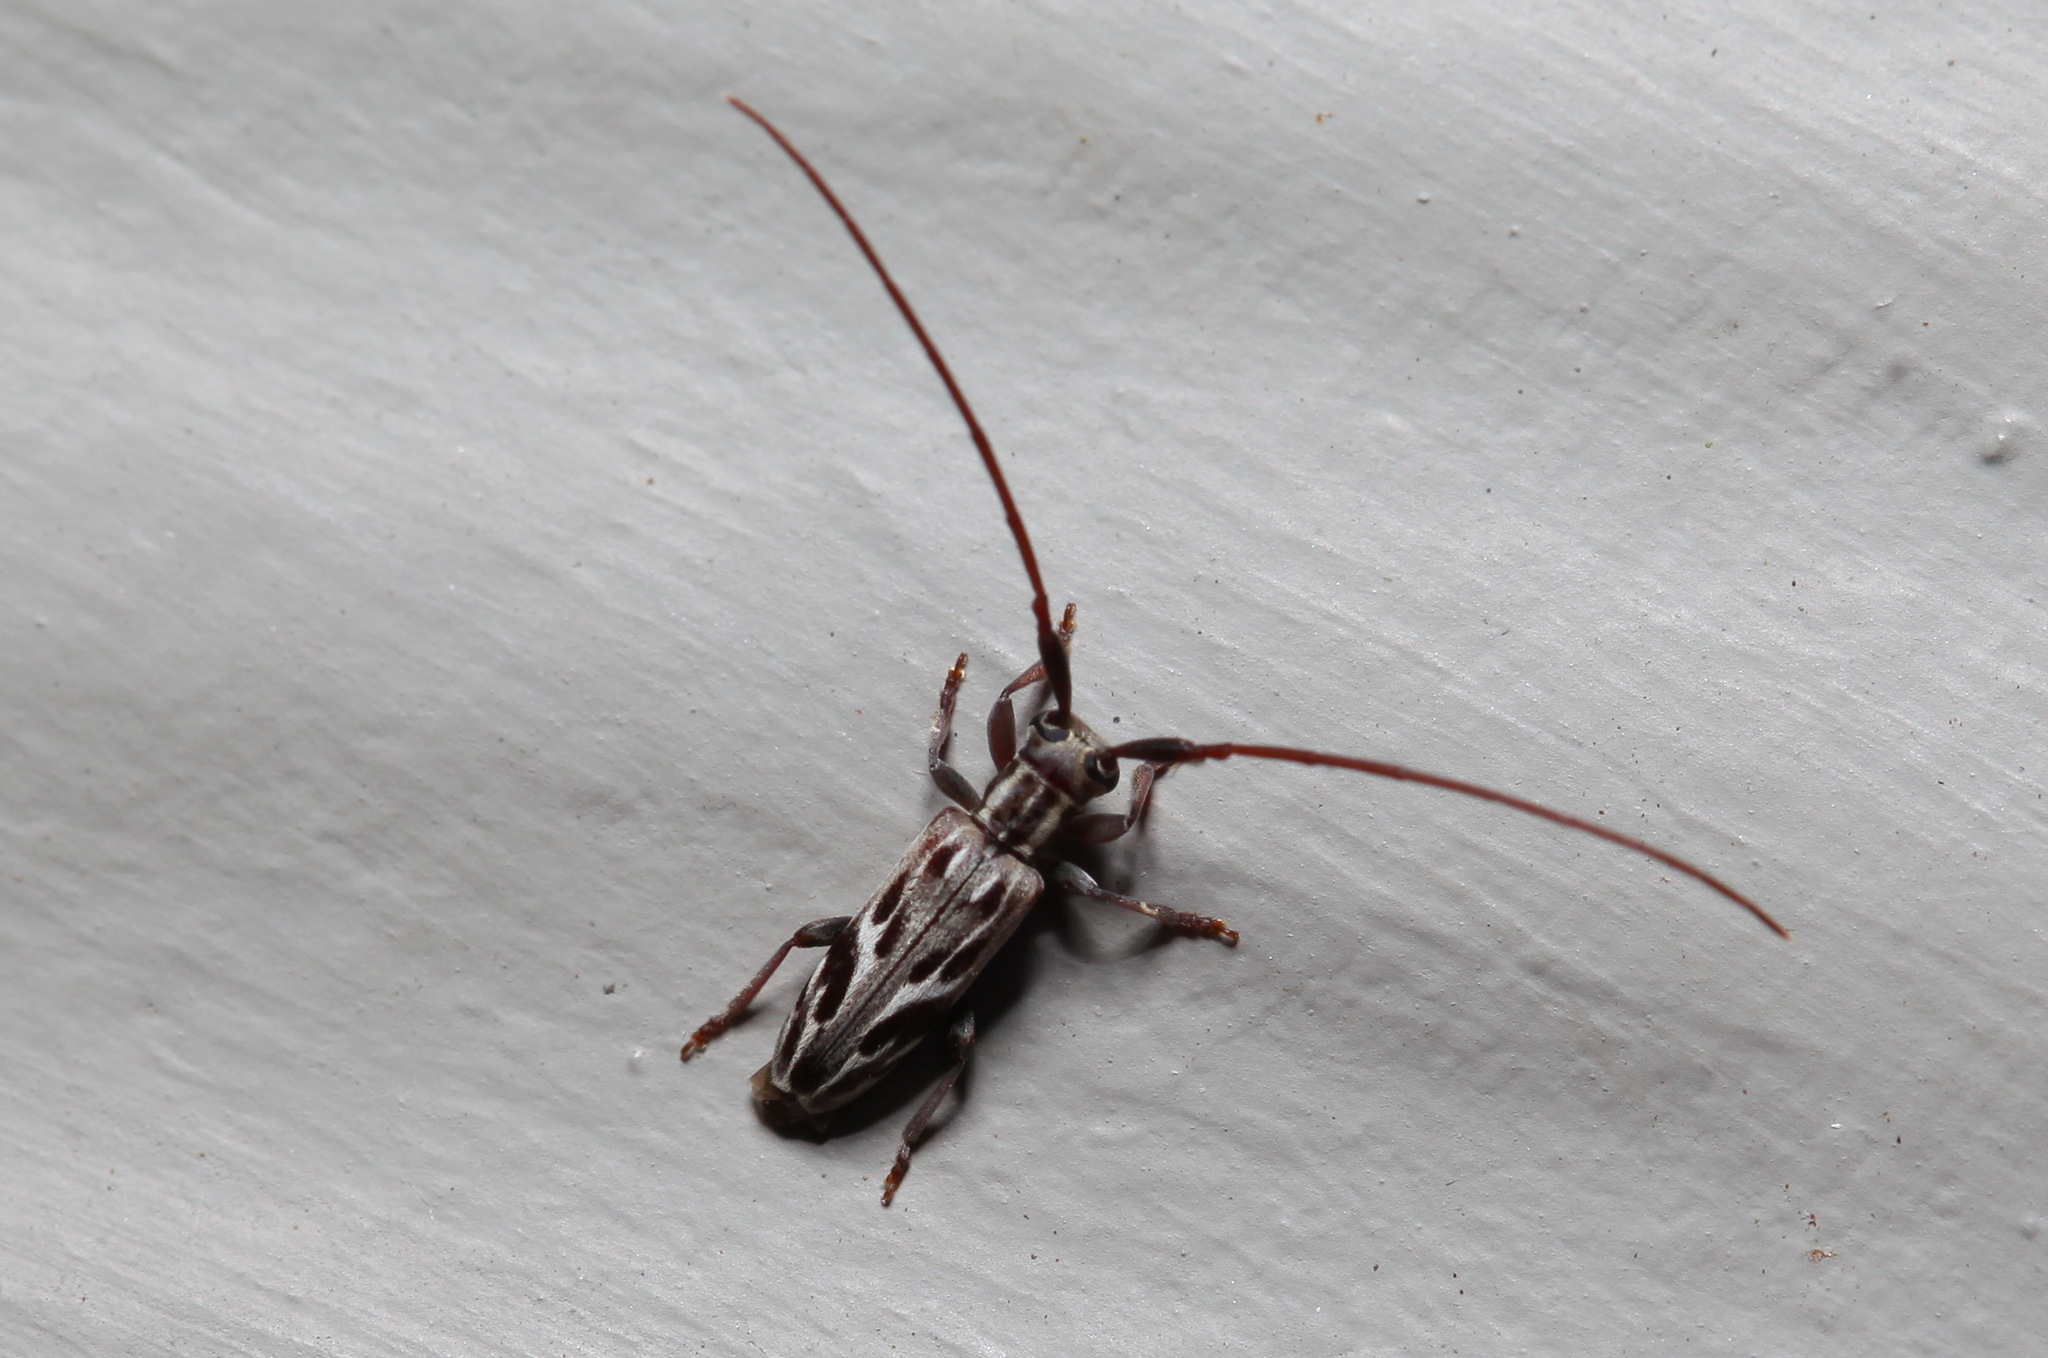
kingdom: Animalia
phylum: Arthropoda
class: Insecta
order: Coleoptera
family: Cerambycidae
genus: Eunidia
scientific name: Eunidia strigata
